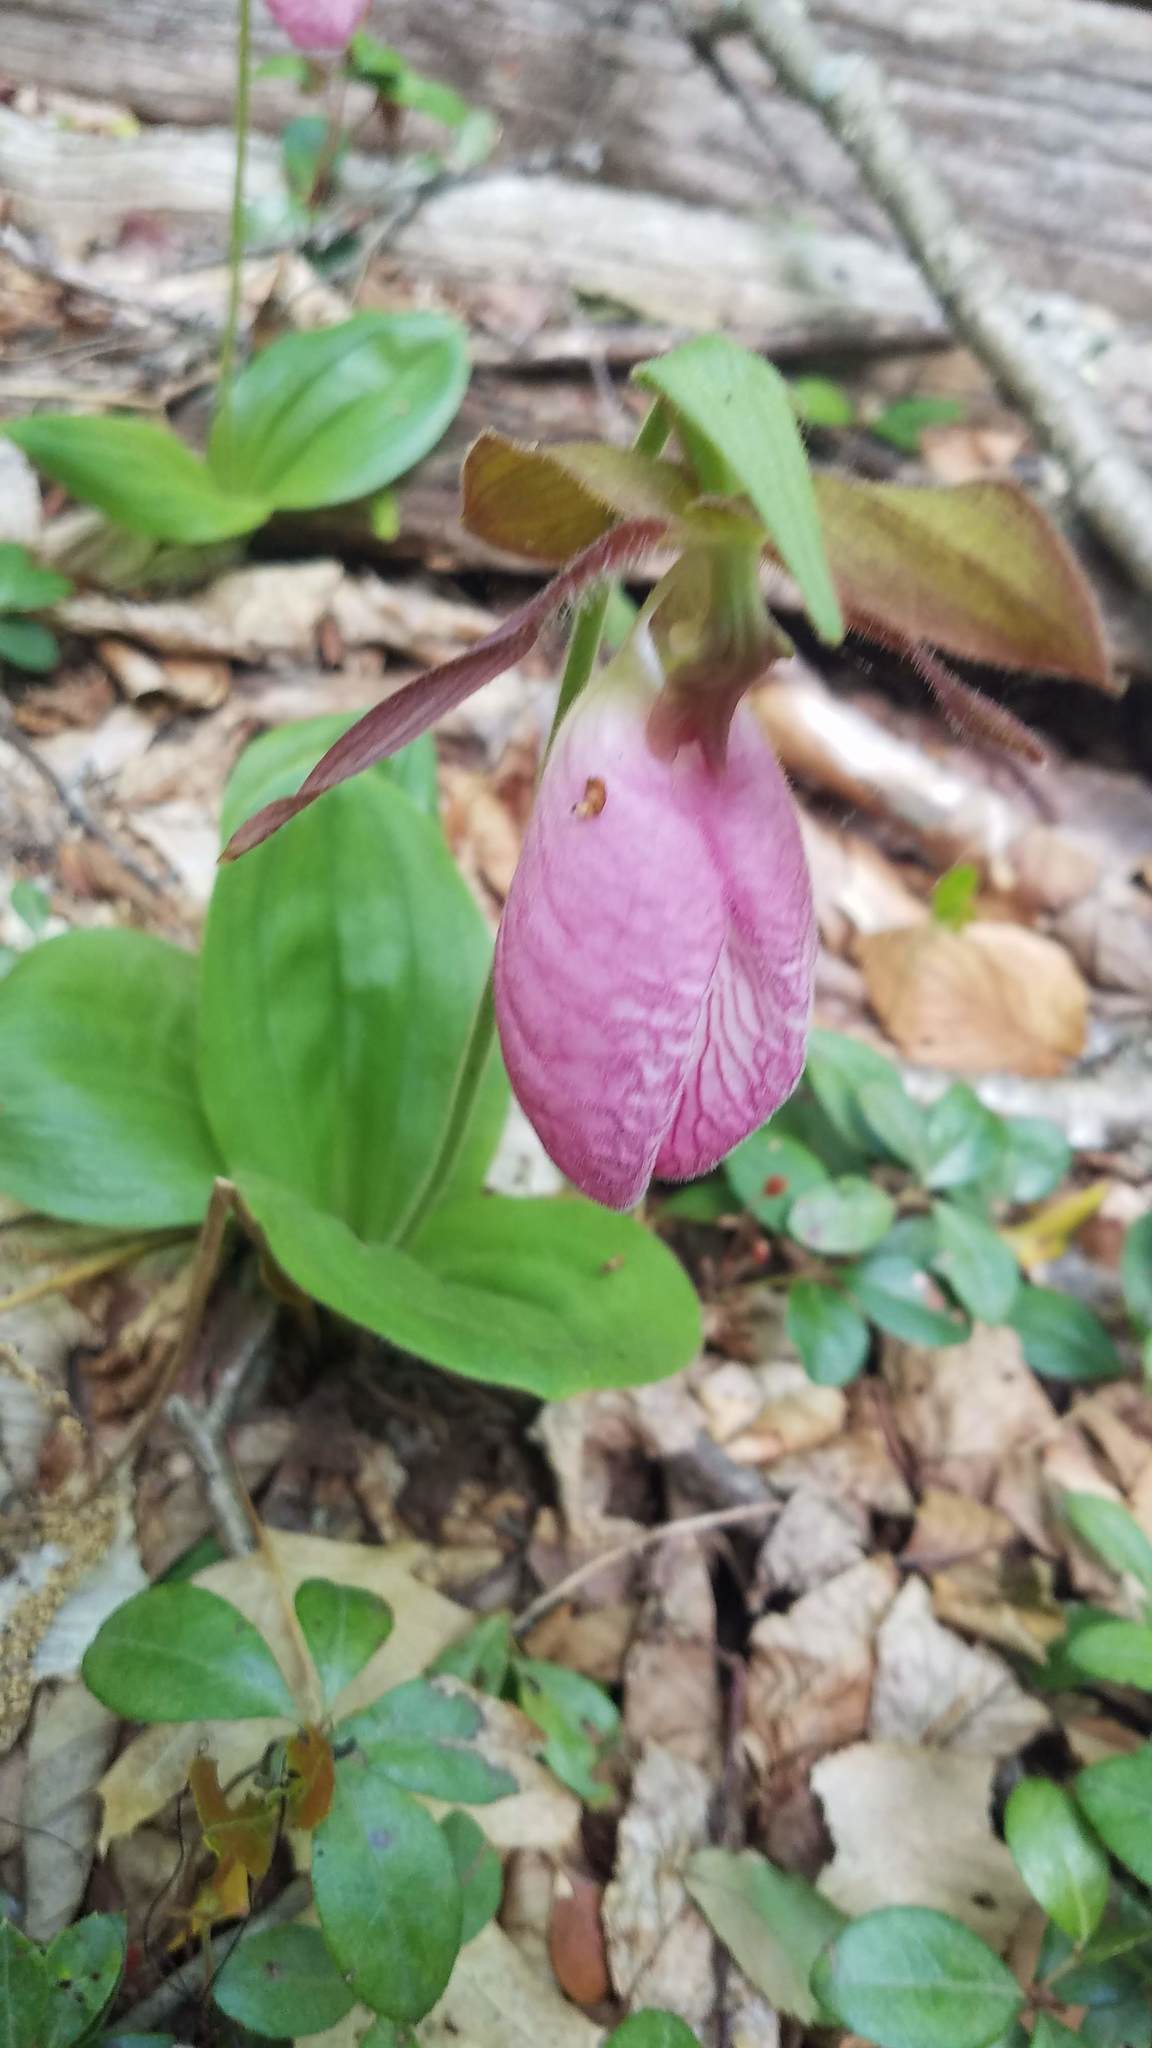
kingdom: Plantae
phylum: Tracheophyta
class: Liliopsida
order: Asparagales
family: Orchidaceae
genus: Cypripedium
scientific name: Cypripedium acaule
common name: Pink lady's-slipper
